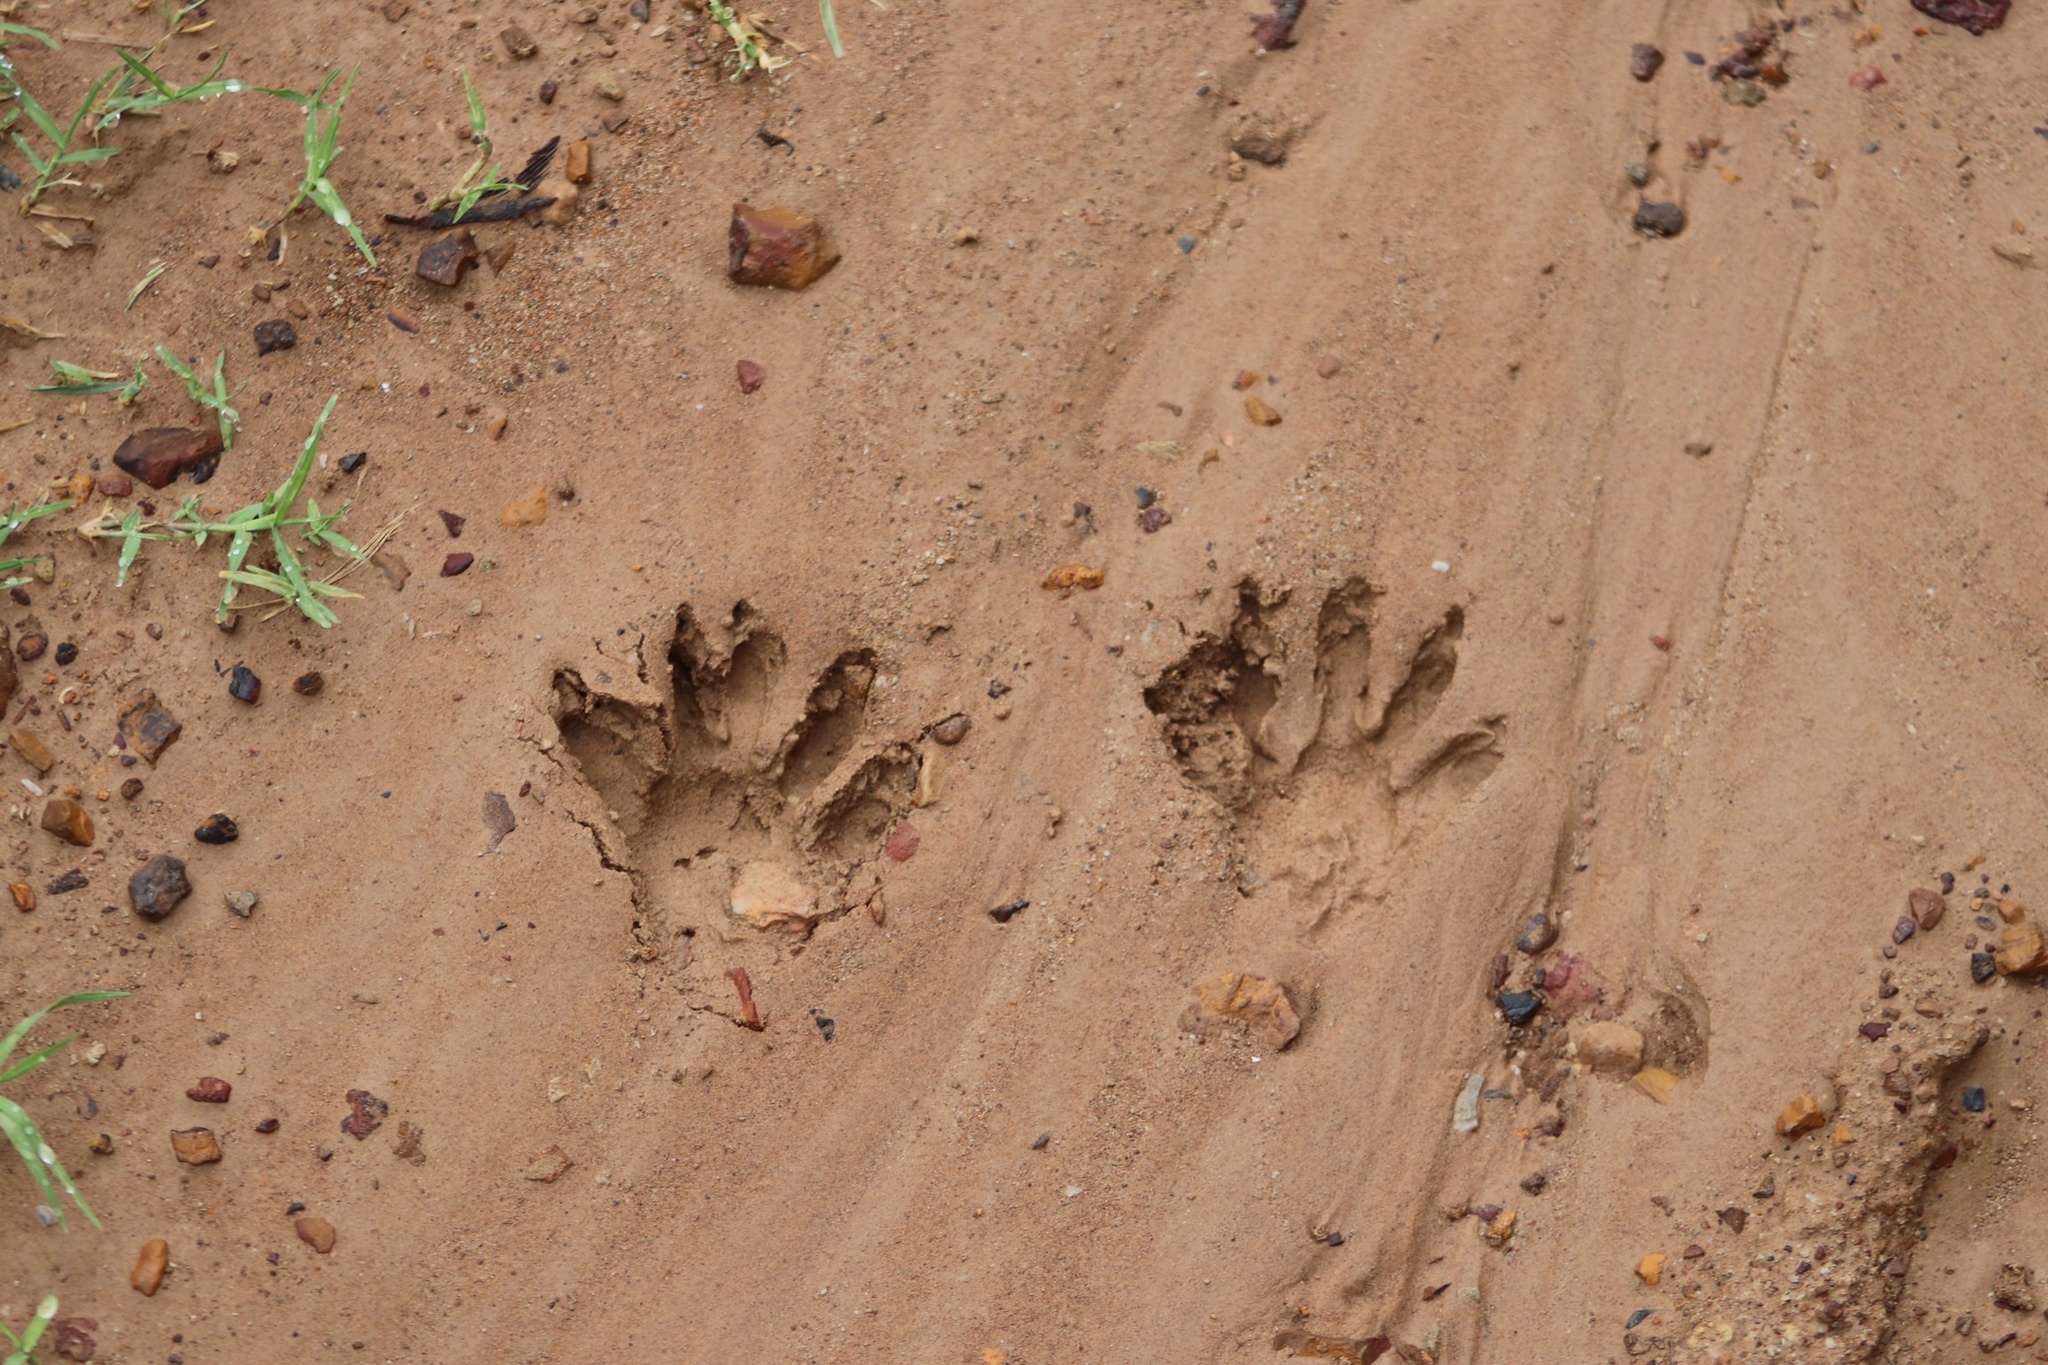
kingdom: Animalia
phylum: Chordata
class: Mammalia
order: Carnivora
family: Procyonidae
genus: Procyon
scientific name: Procyon lotor
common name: Raccoon
